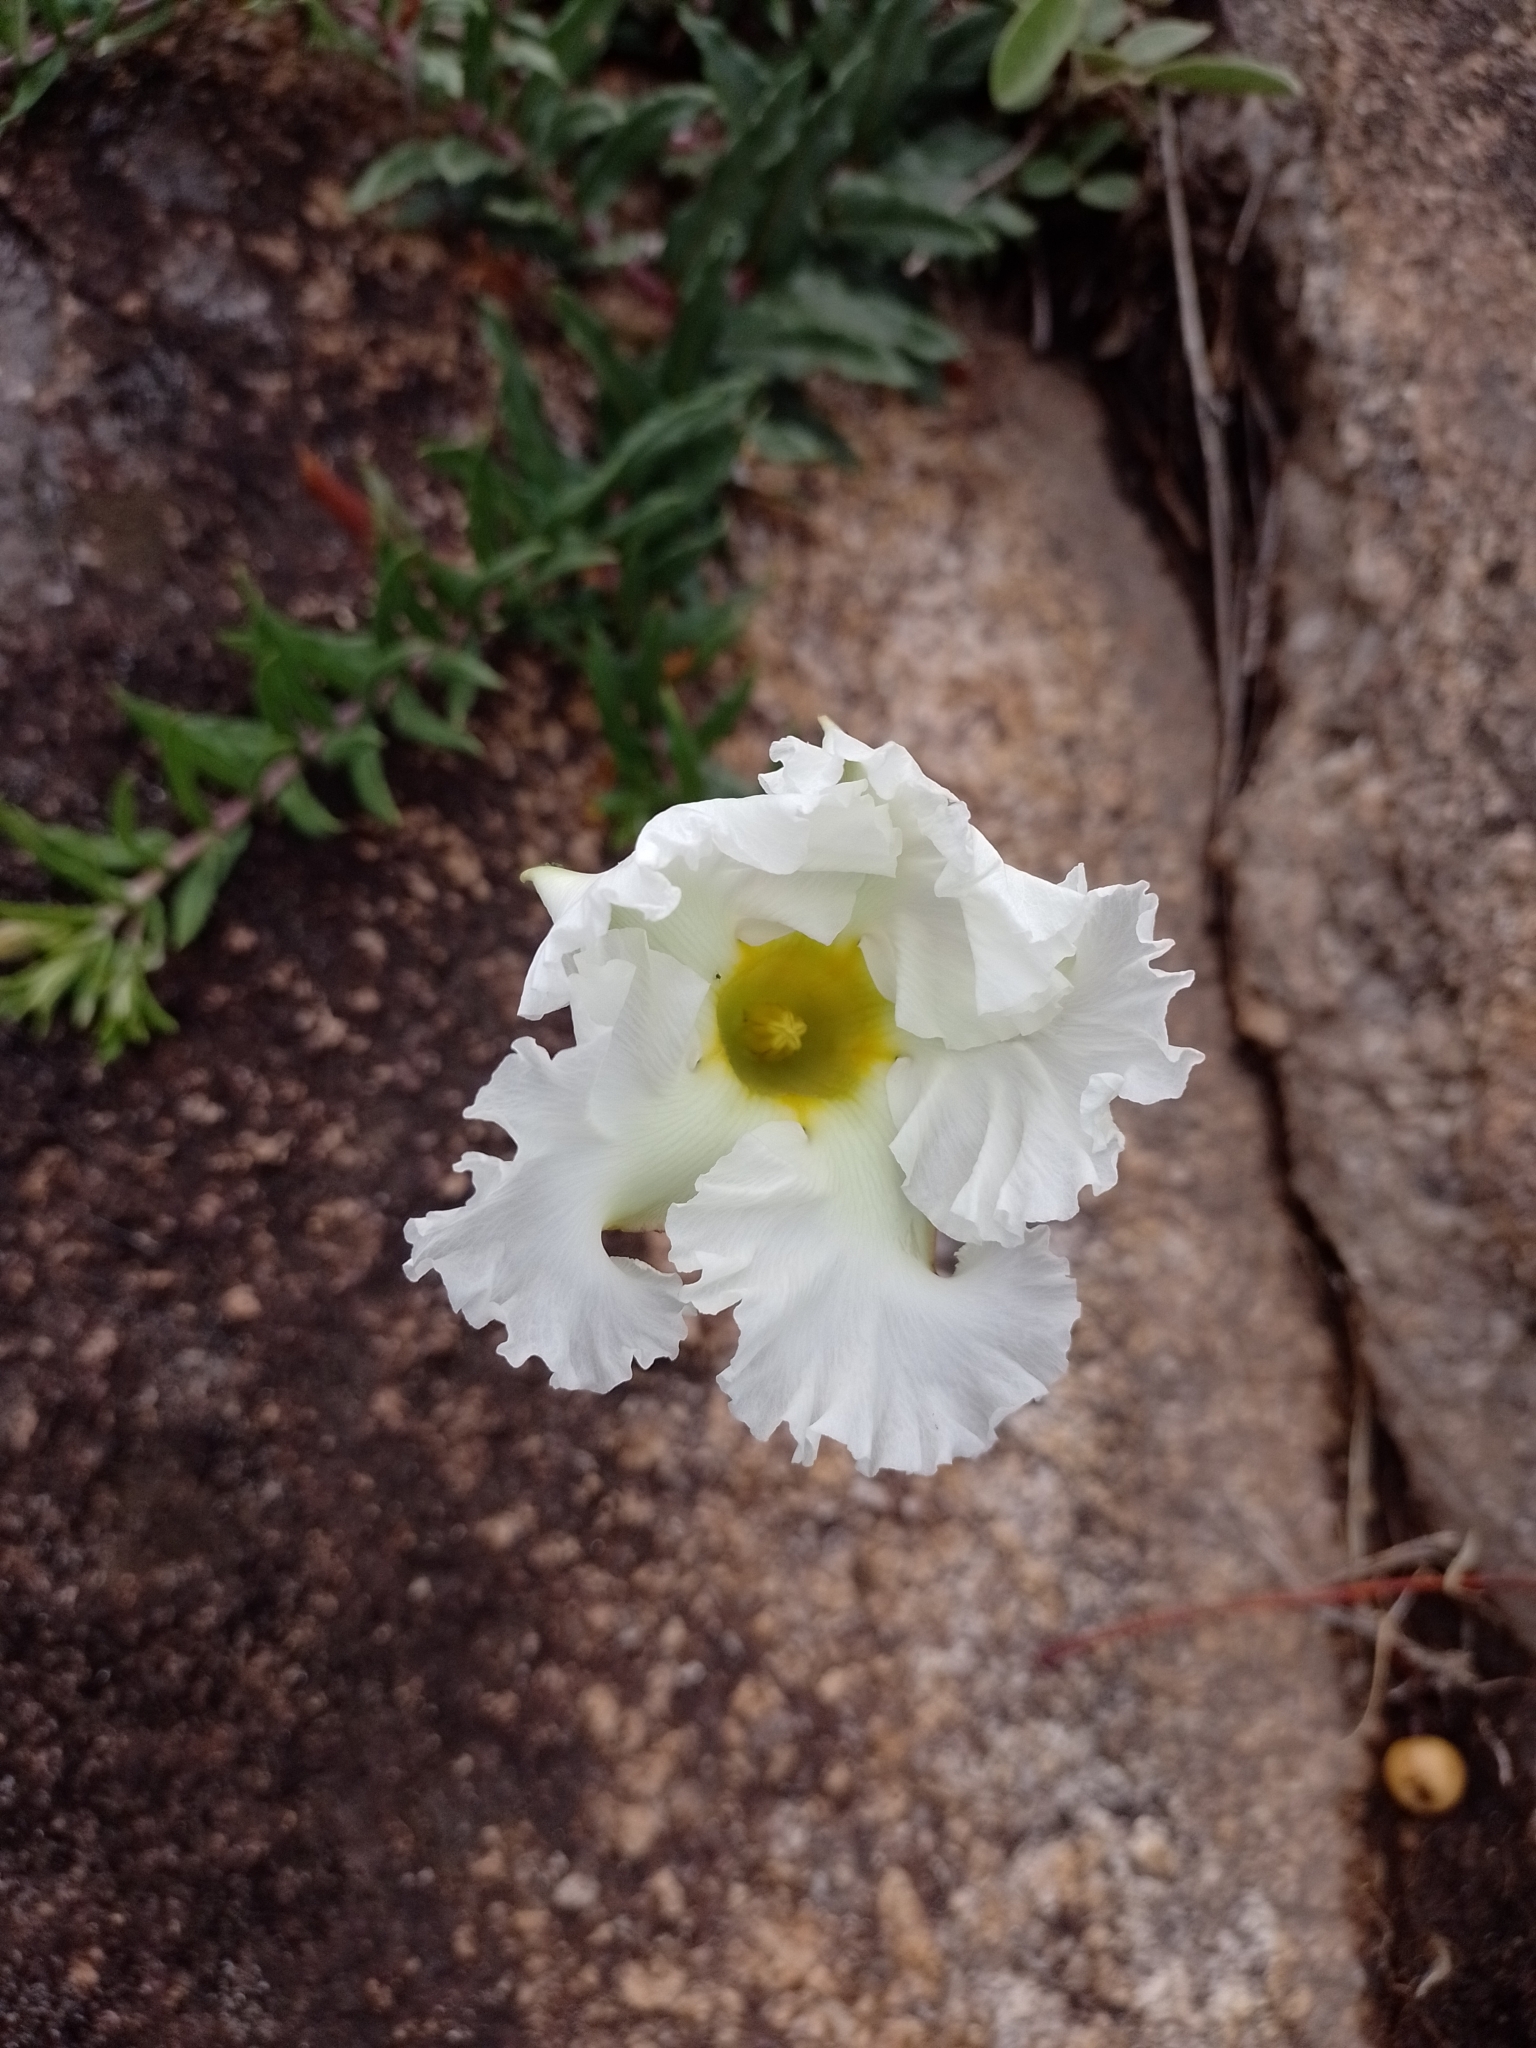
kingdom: Plantae
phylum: Tracheophyta
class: Magnoliopsida
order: Gentianales
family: Apocynaceae
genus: Mandevilla
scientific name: Mandevilla petraea
